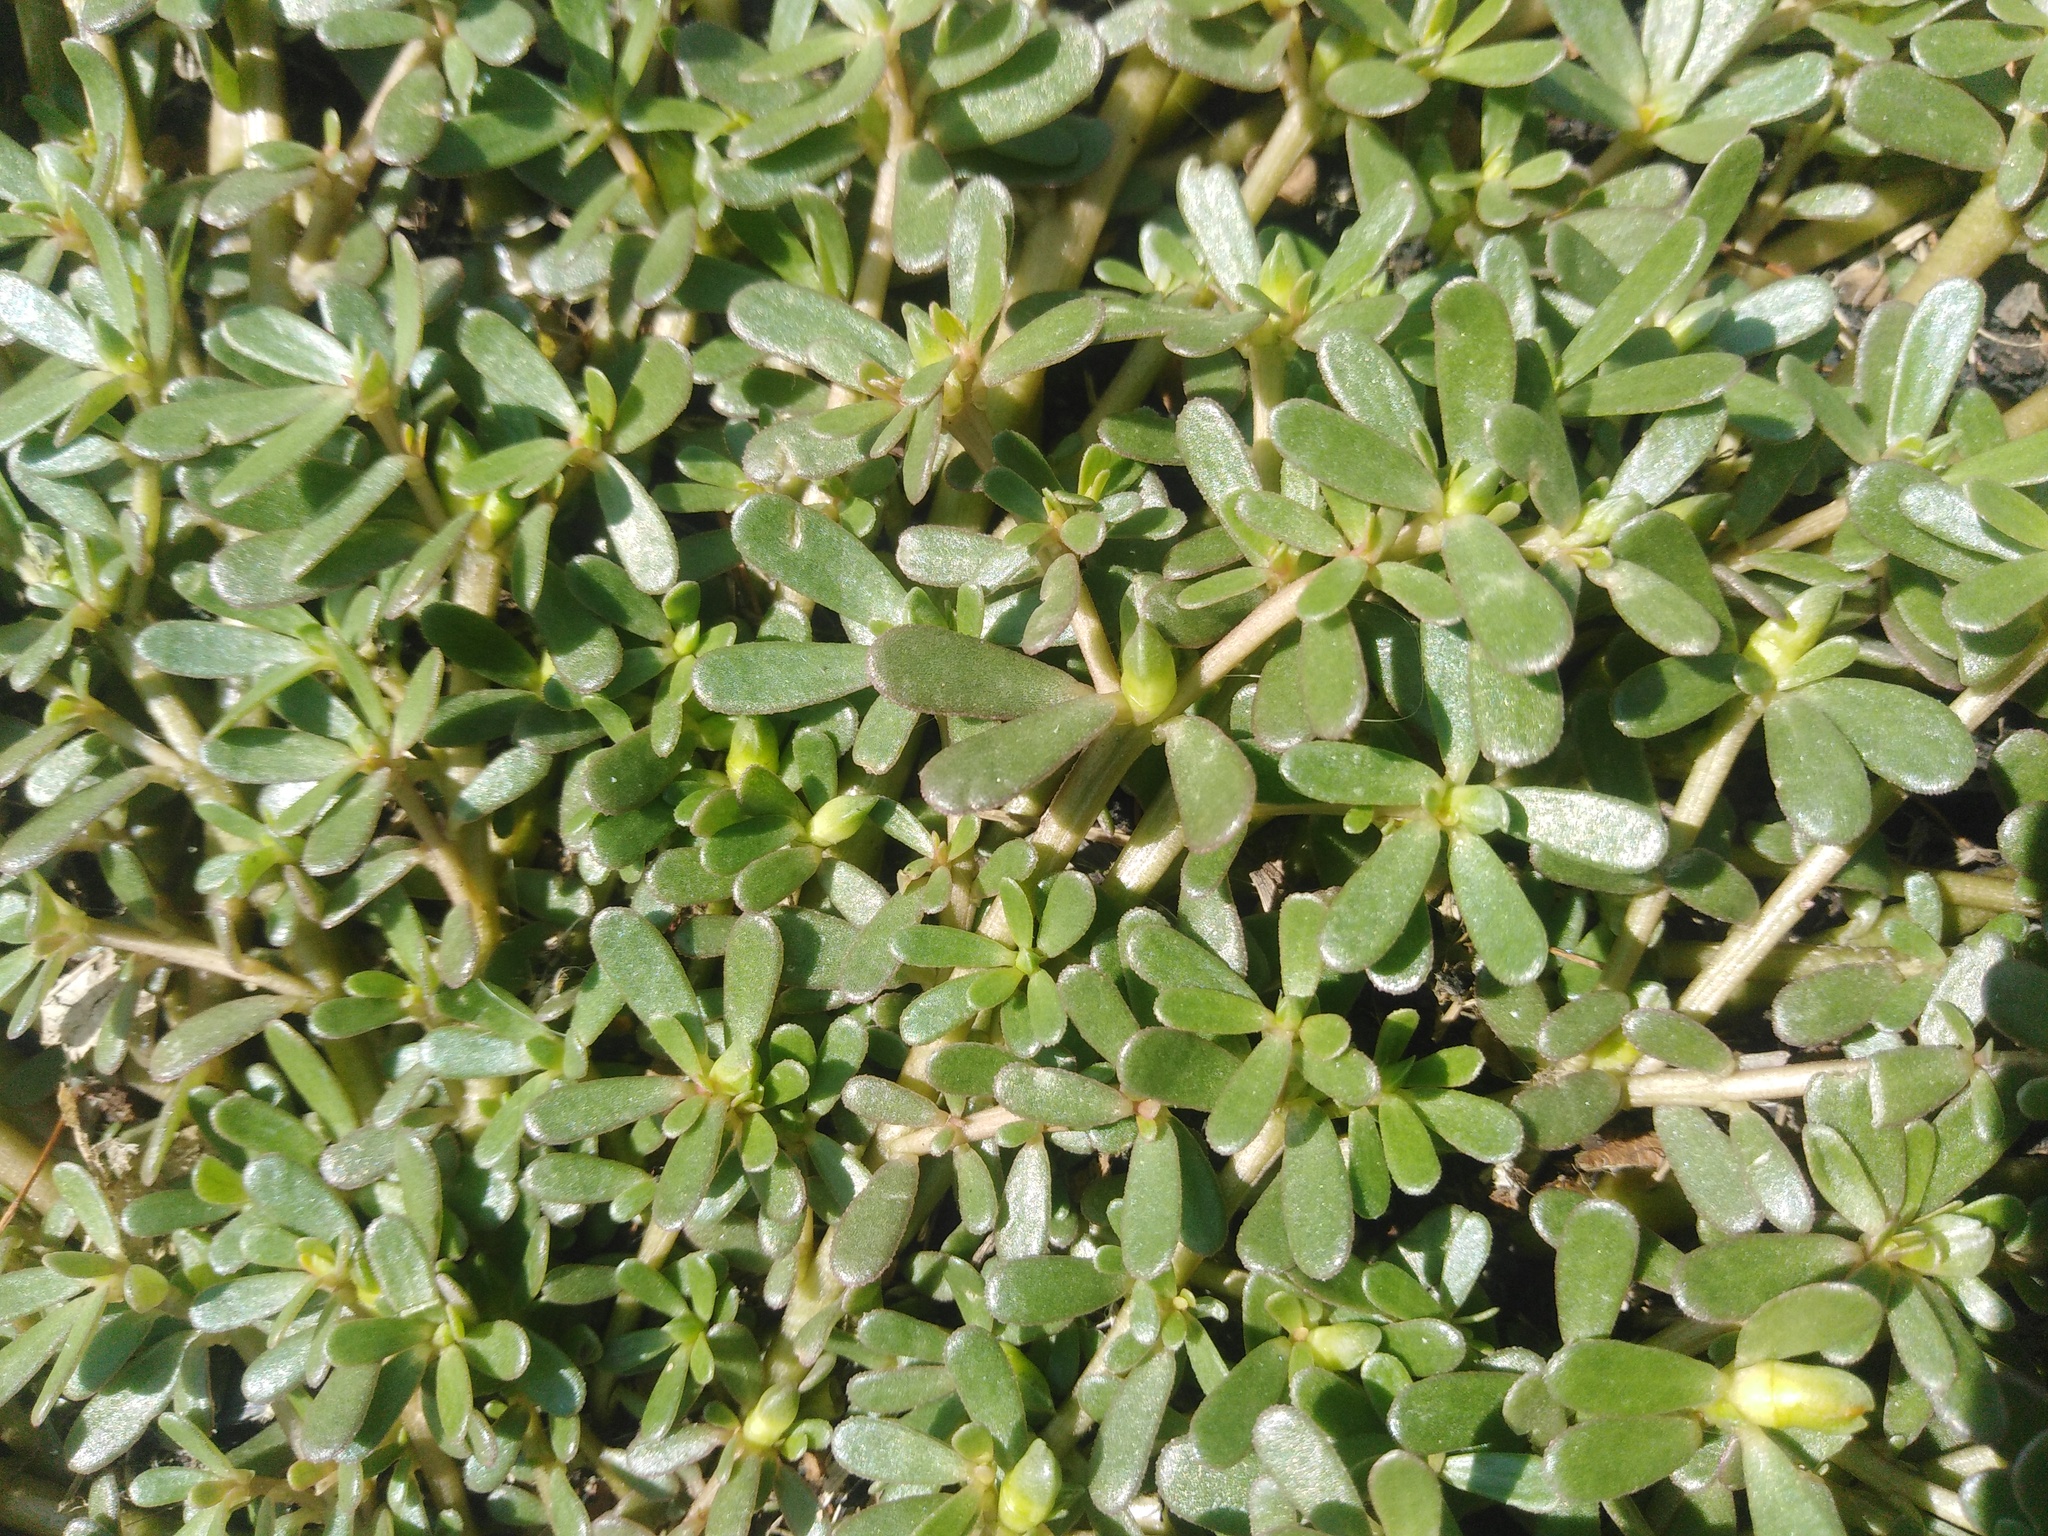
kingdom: Plantae
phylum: Tracheophyta
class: Magnoliopsida
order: Caryophyllales
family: Portulacaceae
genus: Portulaca
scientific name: Portulaca oleracea
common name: Common purslane
